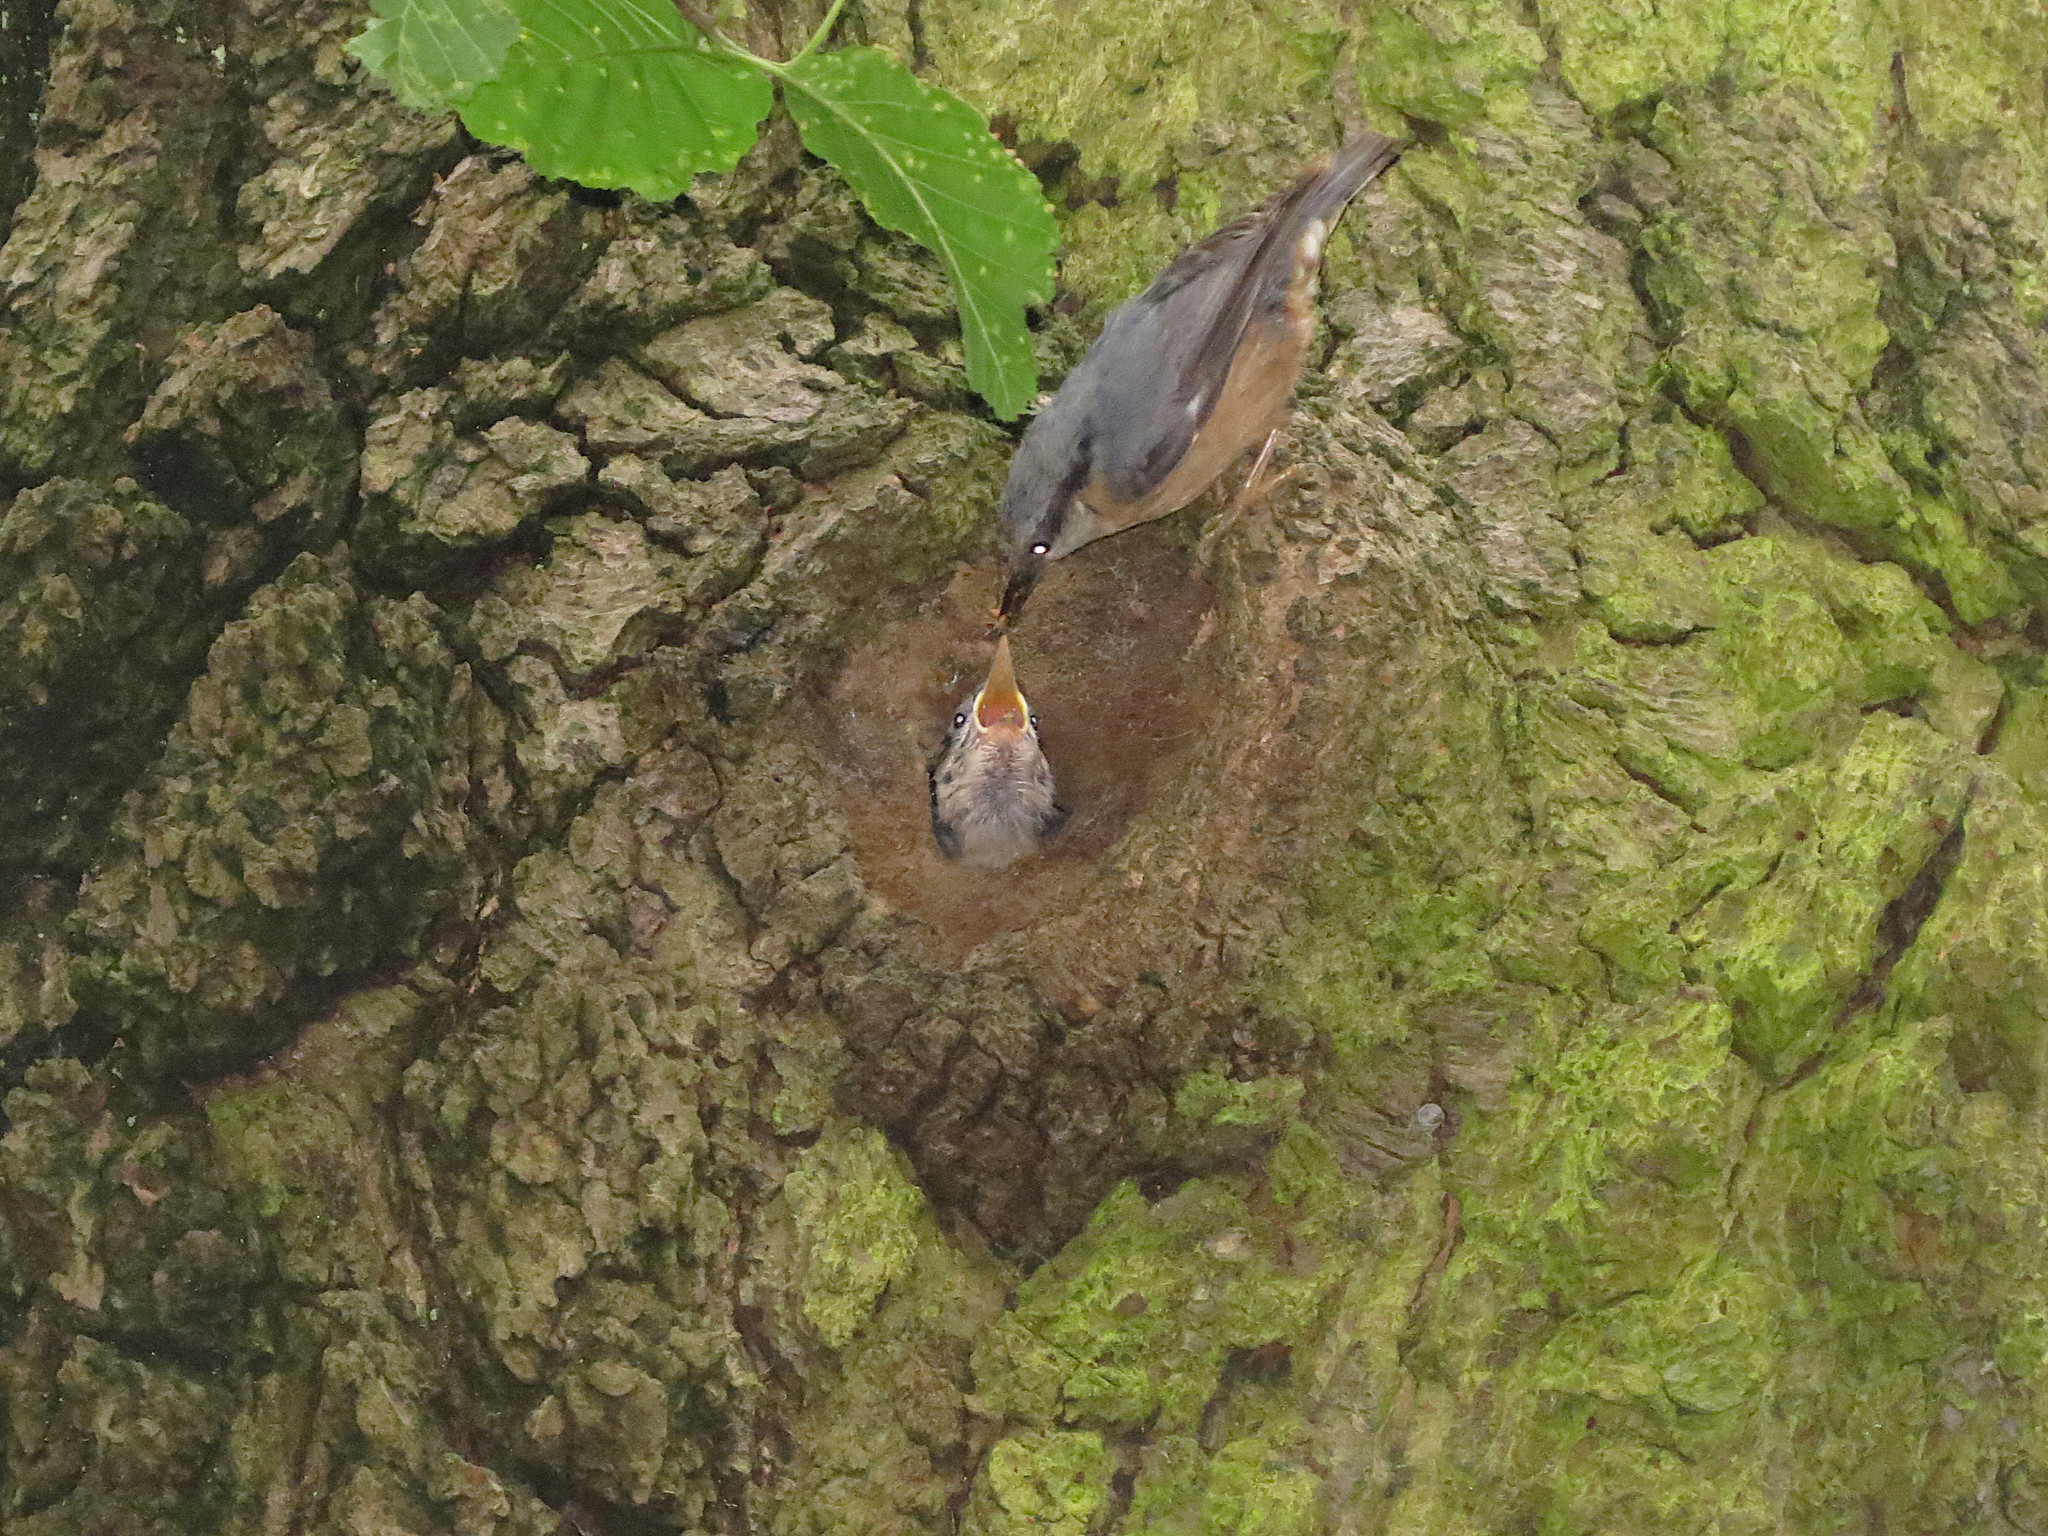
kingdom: Animalia
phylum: Chordata
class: Aves
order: Passeriformes
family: Sittidae
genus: Sitta
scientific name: Sitta europaea
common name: Eurasian nuthatch
